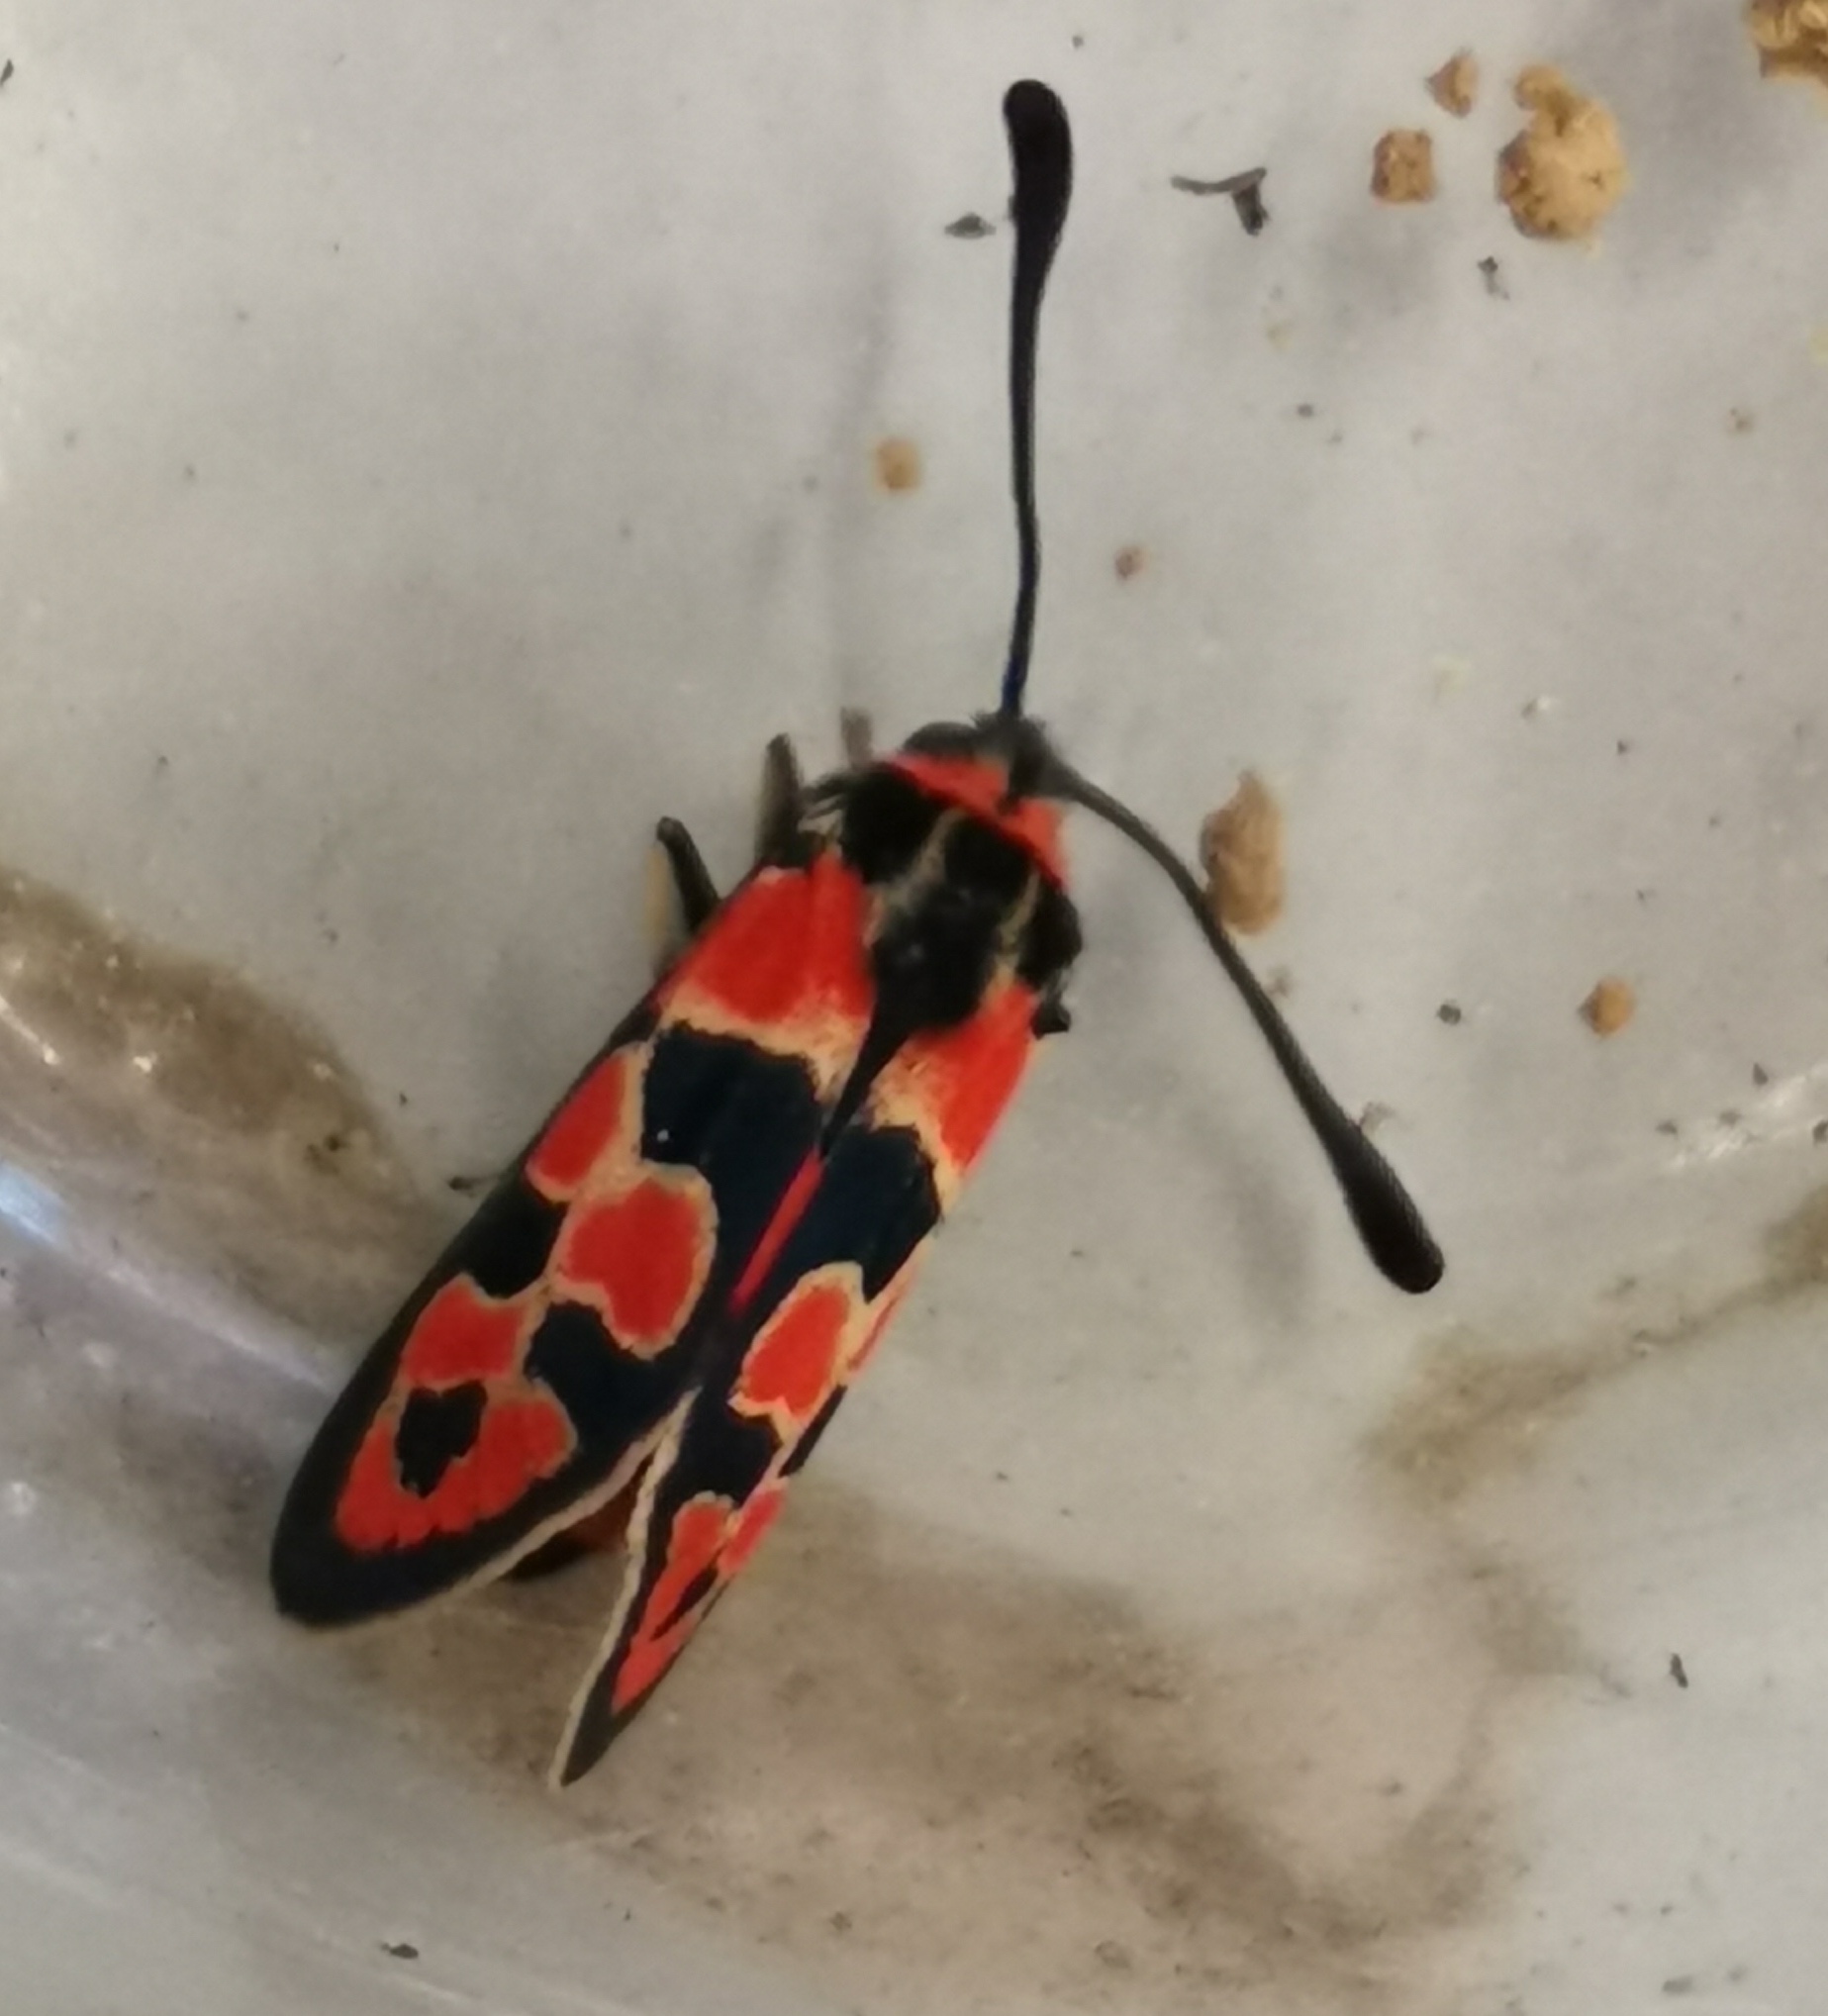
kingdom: Animalia
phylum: Arthropoda
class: Insecta
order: Lepidoptera
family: Zygaenidae
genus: Zygaena
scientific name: Zygaena fausta
